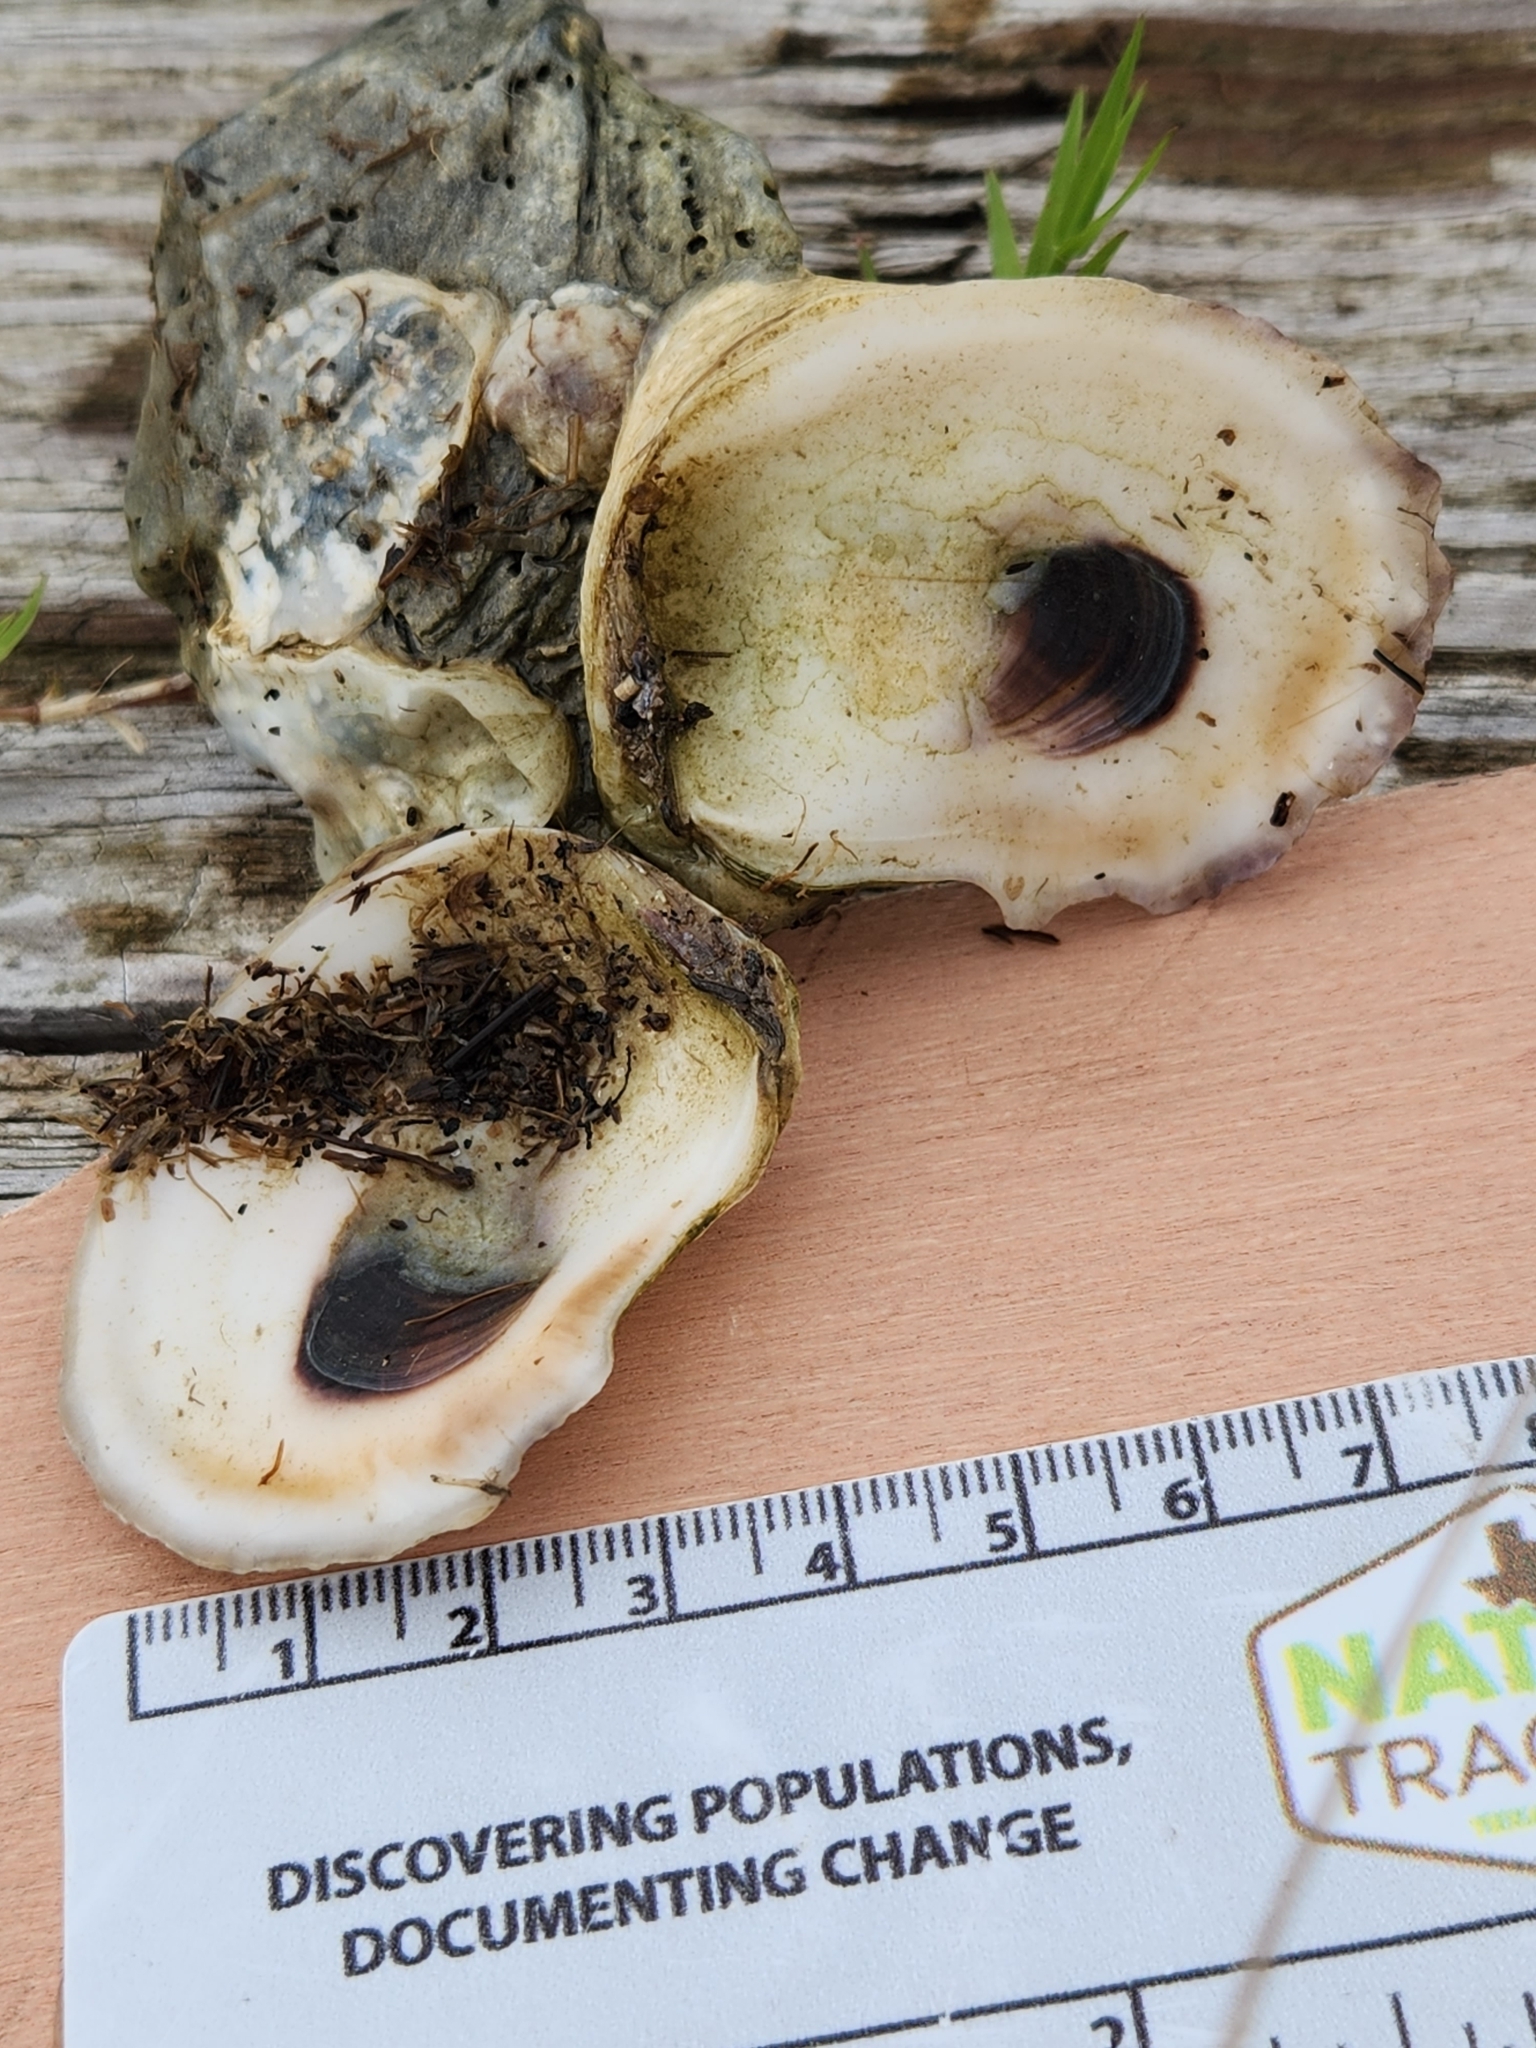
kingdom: Animalia
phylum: Mollusca
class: Bivalvia
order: Ostreida
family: Ostreidae
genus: Crassostrea
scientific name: Crassostrea virginica
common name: American oyster
